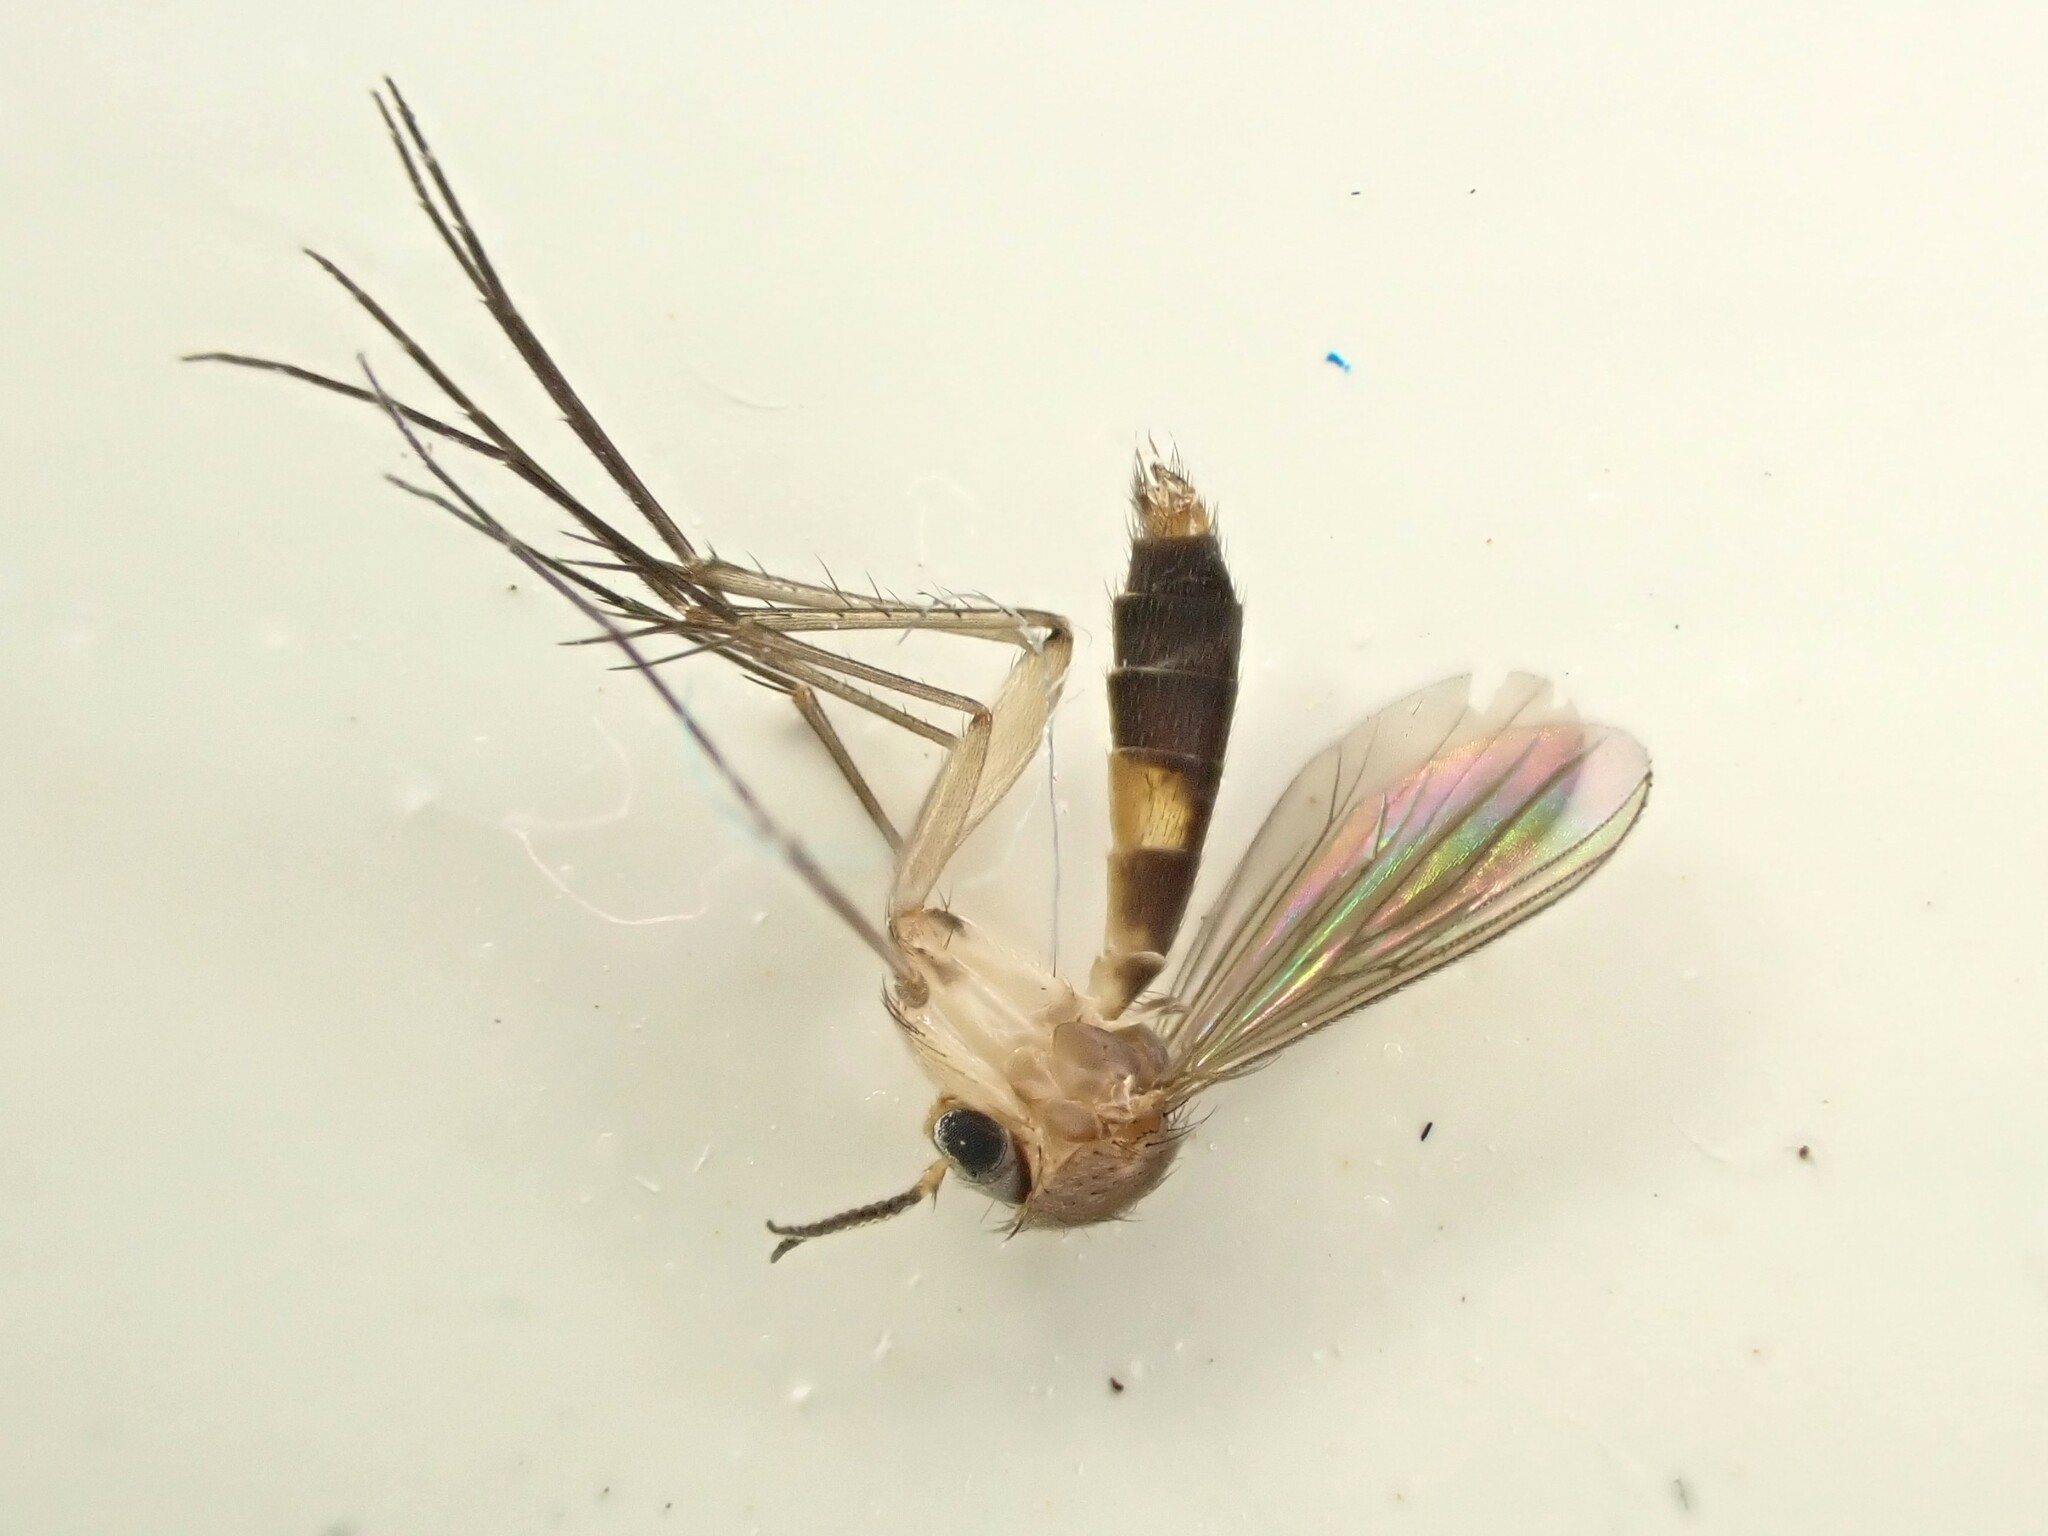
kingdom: Animalia
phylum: Arthropoda
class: Insecta
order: Diptera
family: Mycetophilidae
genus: Exechia
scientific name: Exechia hiemalis
